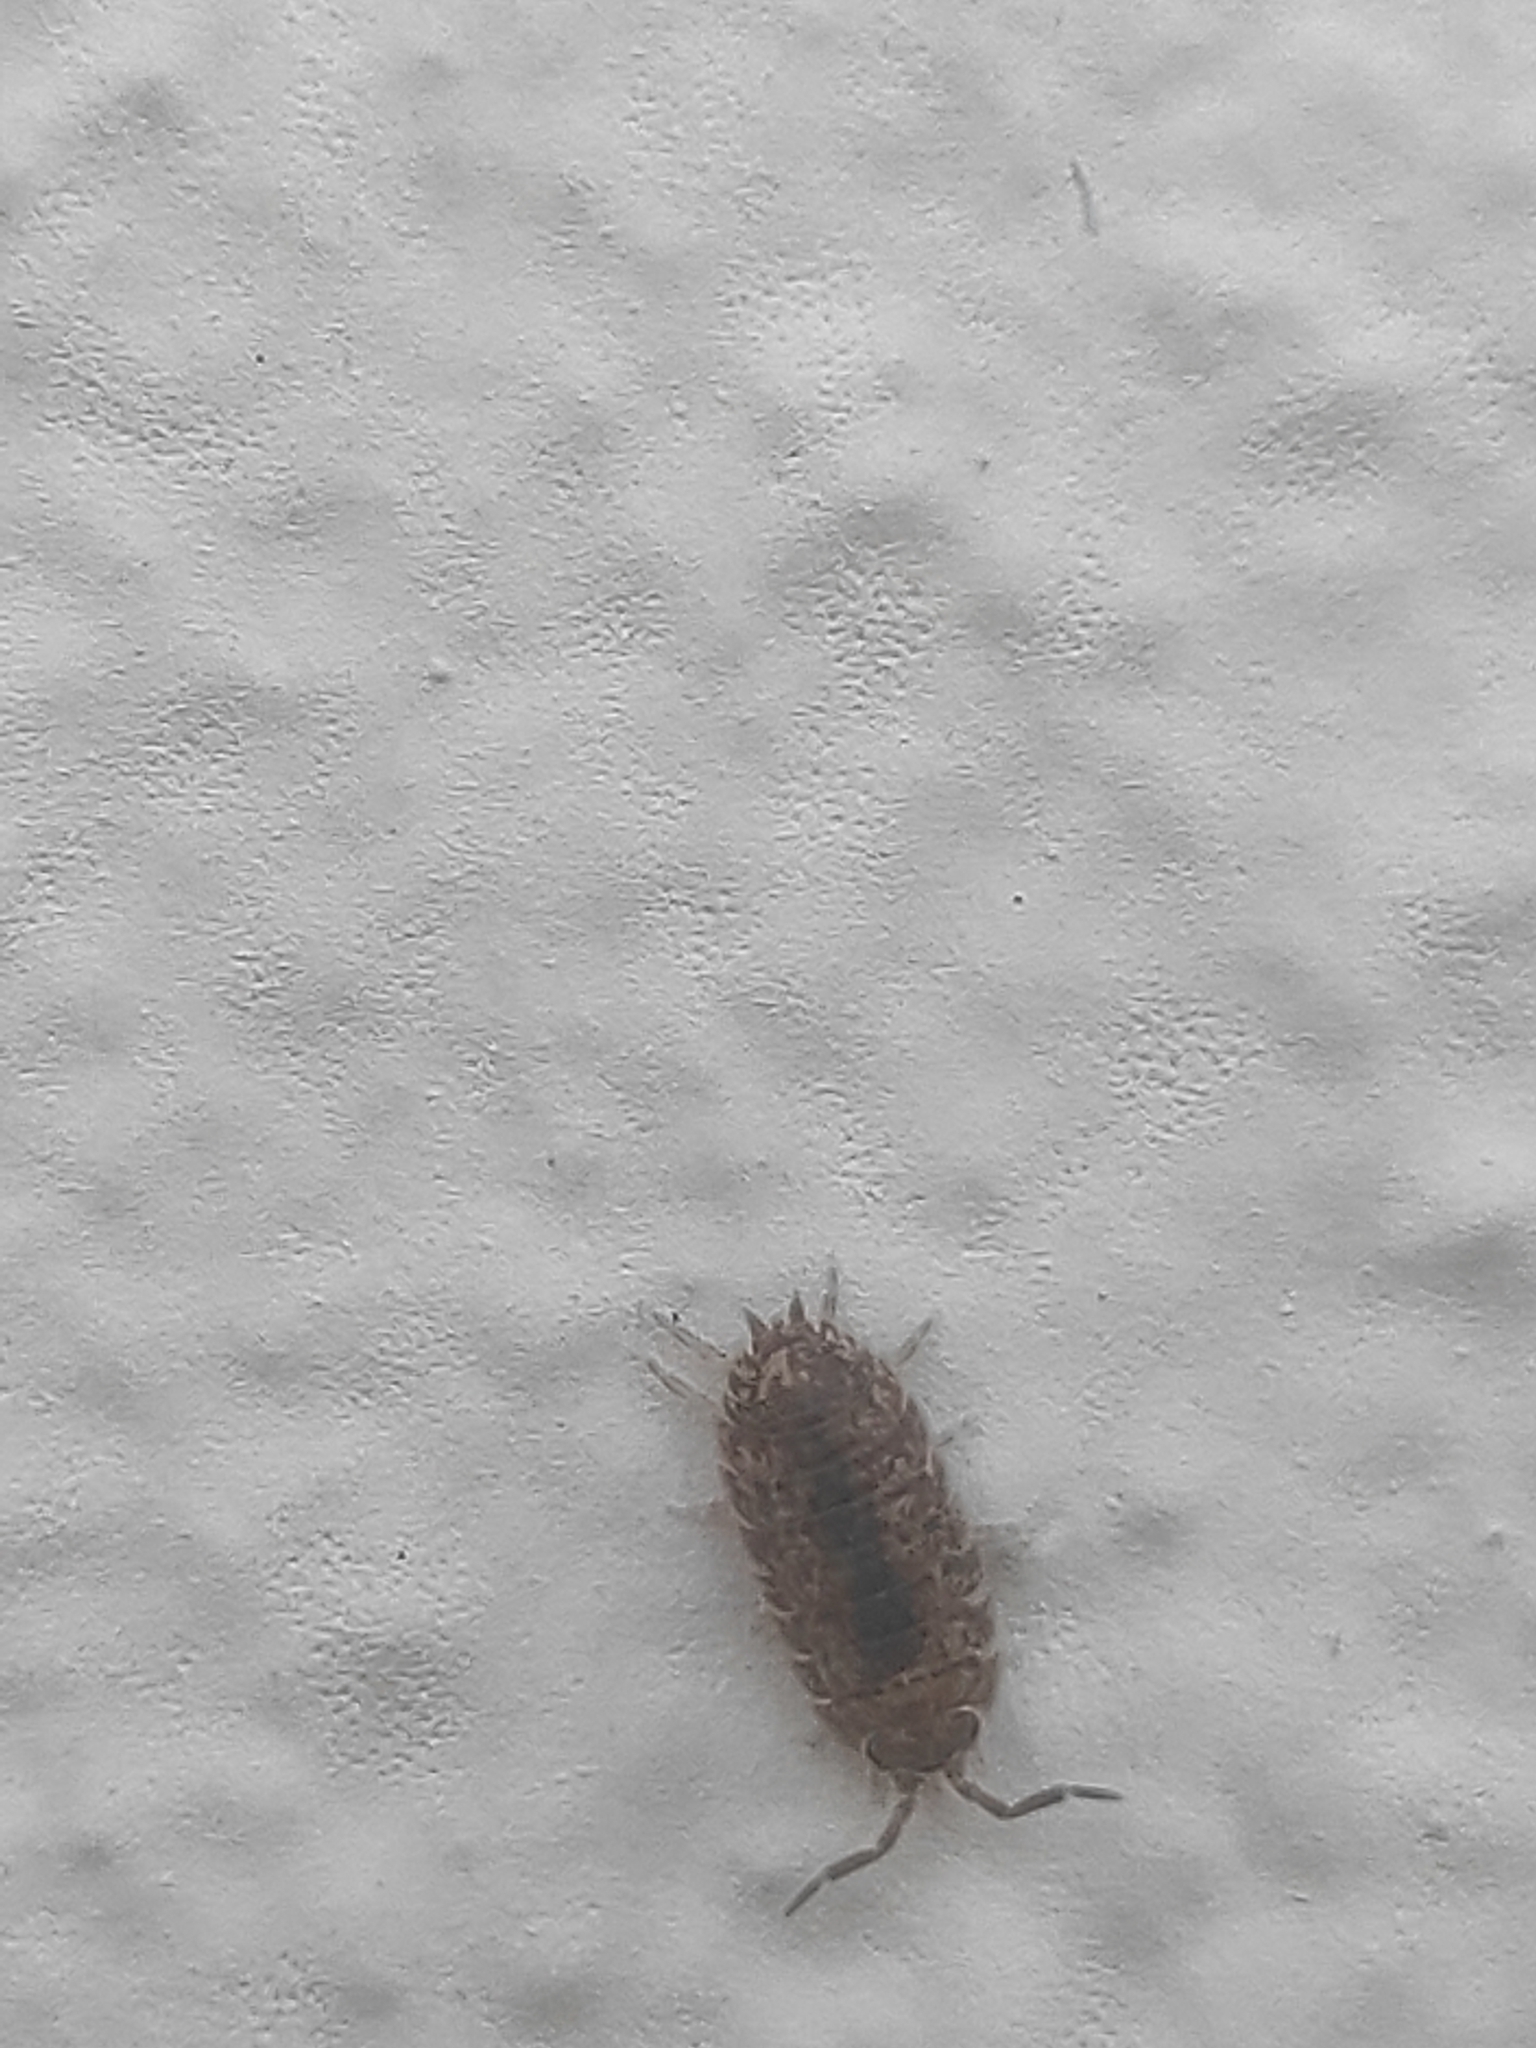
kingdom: Animalia
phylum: Arthropoda
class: Malacostraca
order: Isopoda
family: Porcellionidae
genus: Porcellio
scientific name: Porcellio scaber
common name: Common rough woodlouse
